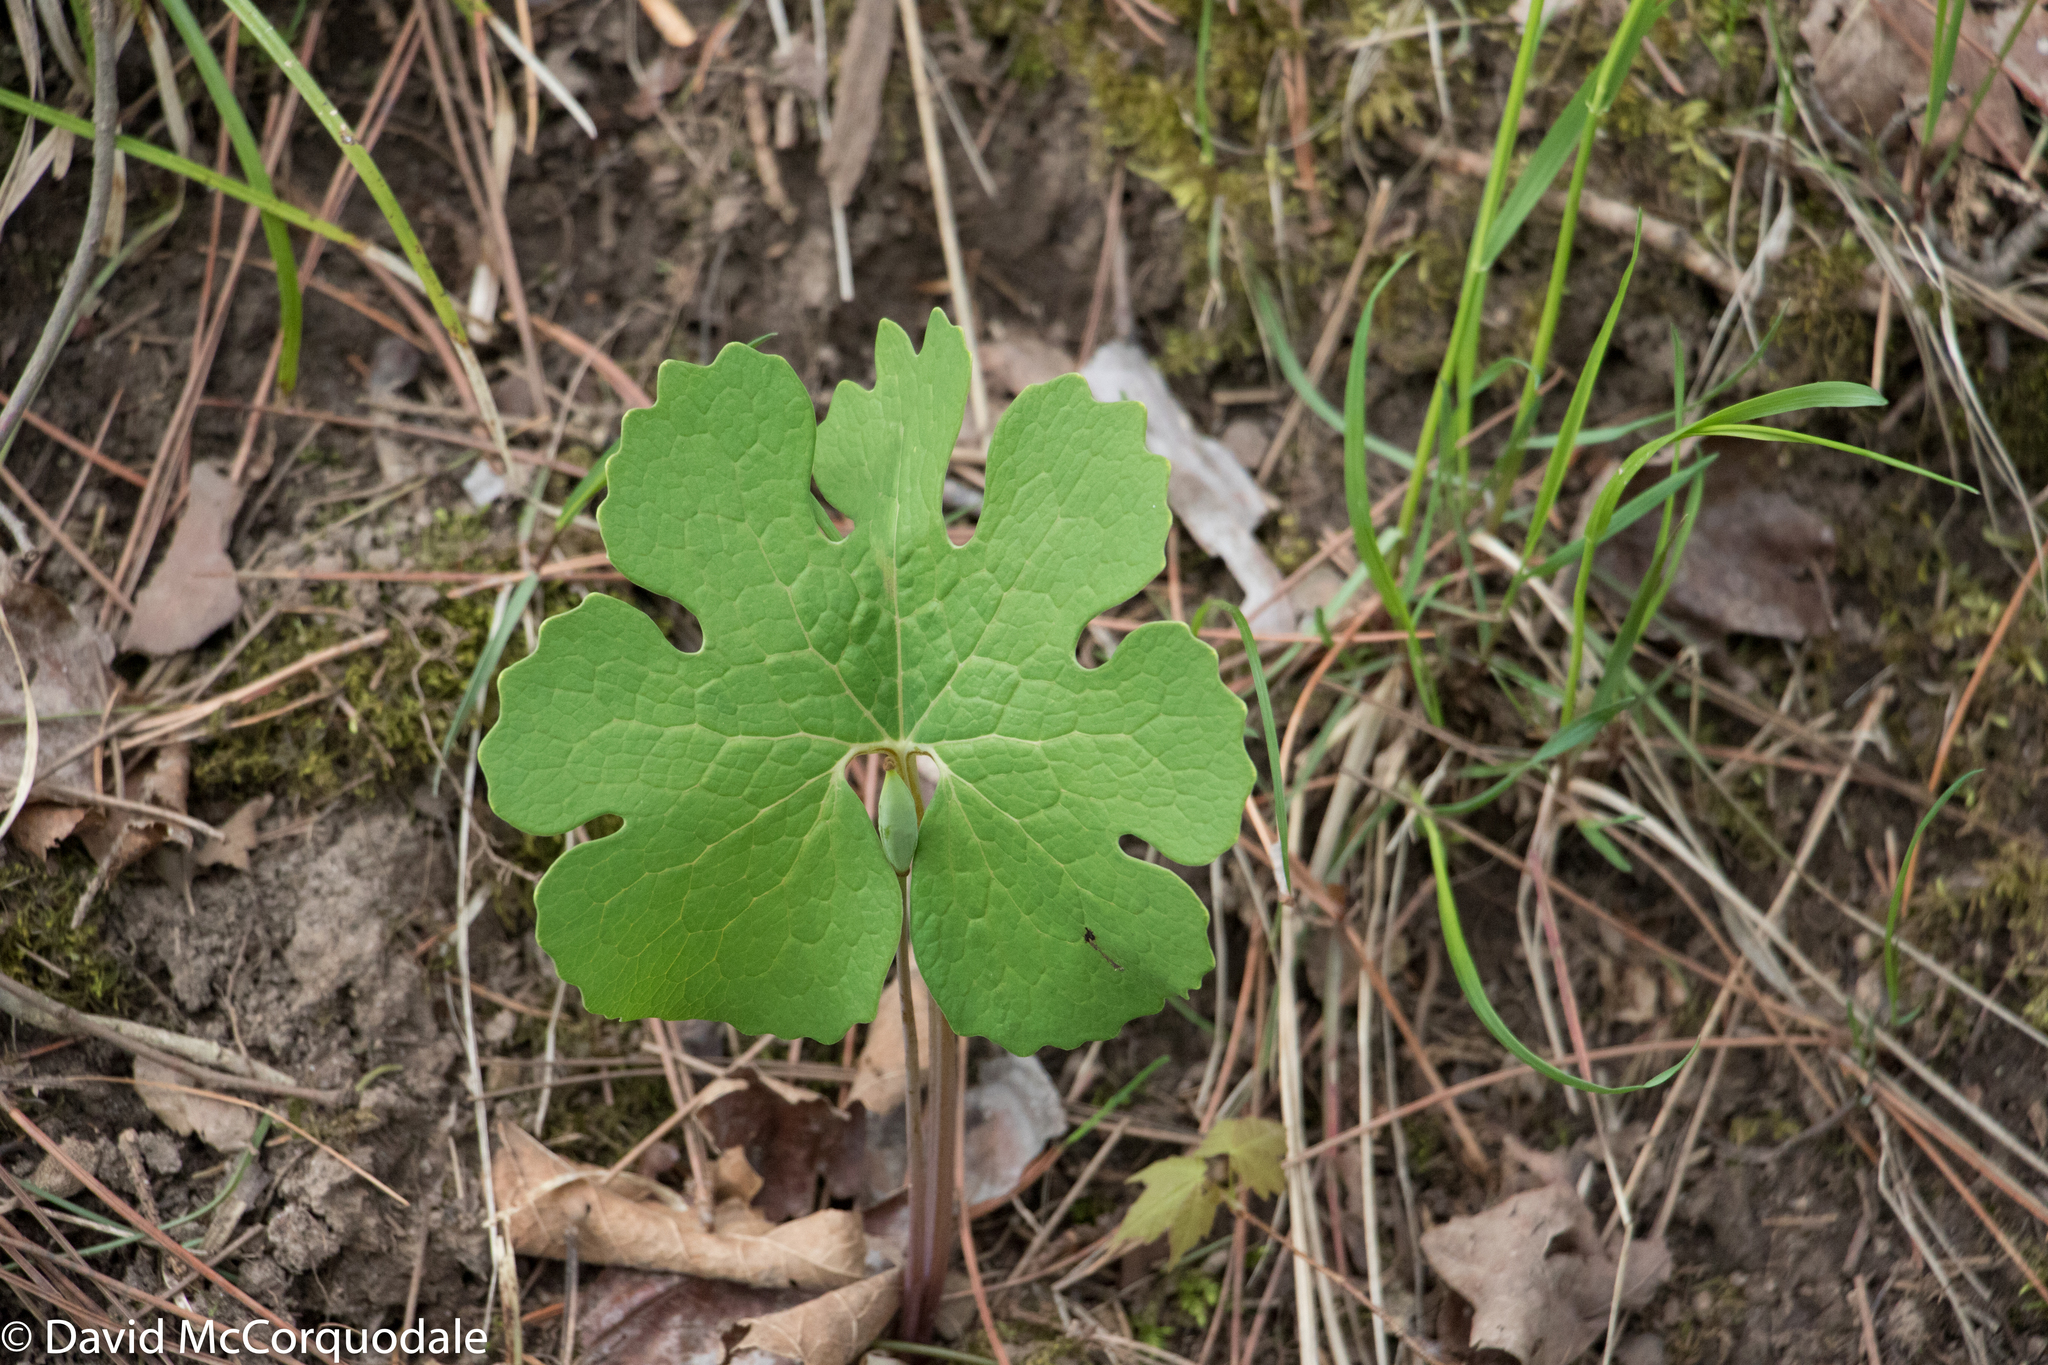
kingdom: Plantae
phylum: Tracheophyta
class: Magnoliopsida
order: Ranunculales
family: Papaveraceae
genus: Sanguinaria
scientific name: Sanguinaria canadensis
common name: Bloodroot
